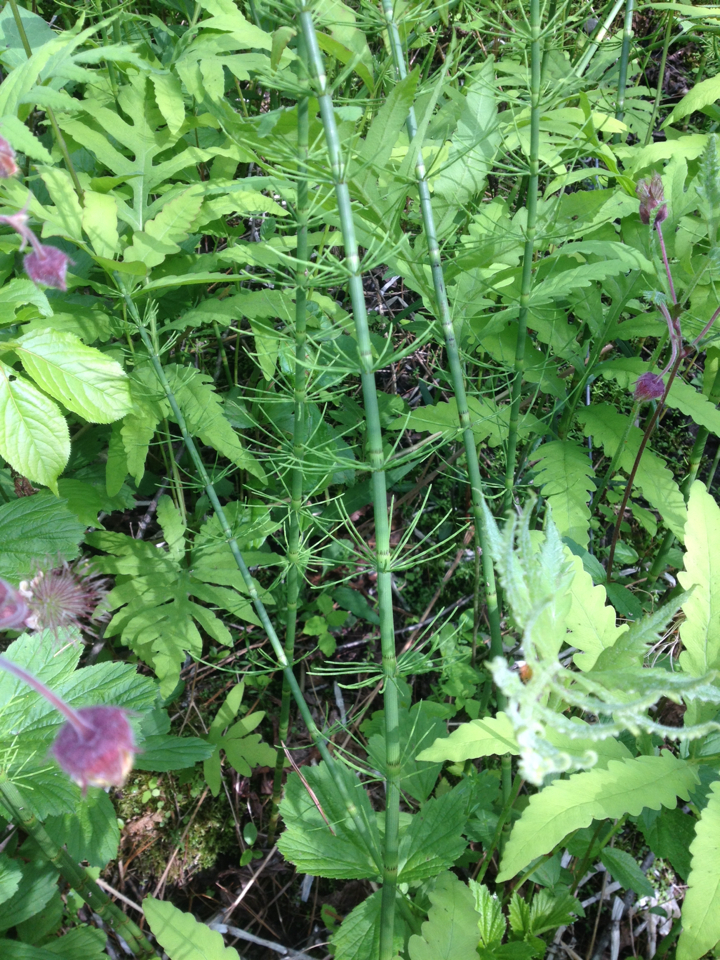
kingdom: Plantae
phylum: Tracheophyta
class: Polypodiopsida
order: Equisetales
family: Equisetaceae
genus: Equisetum
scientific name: Equisetum fluviatile
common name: Water horsetail
